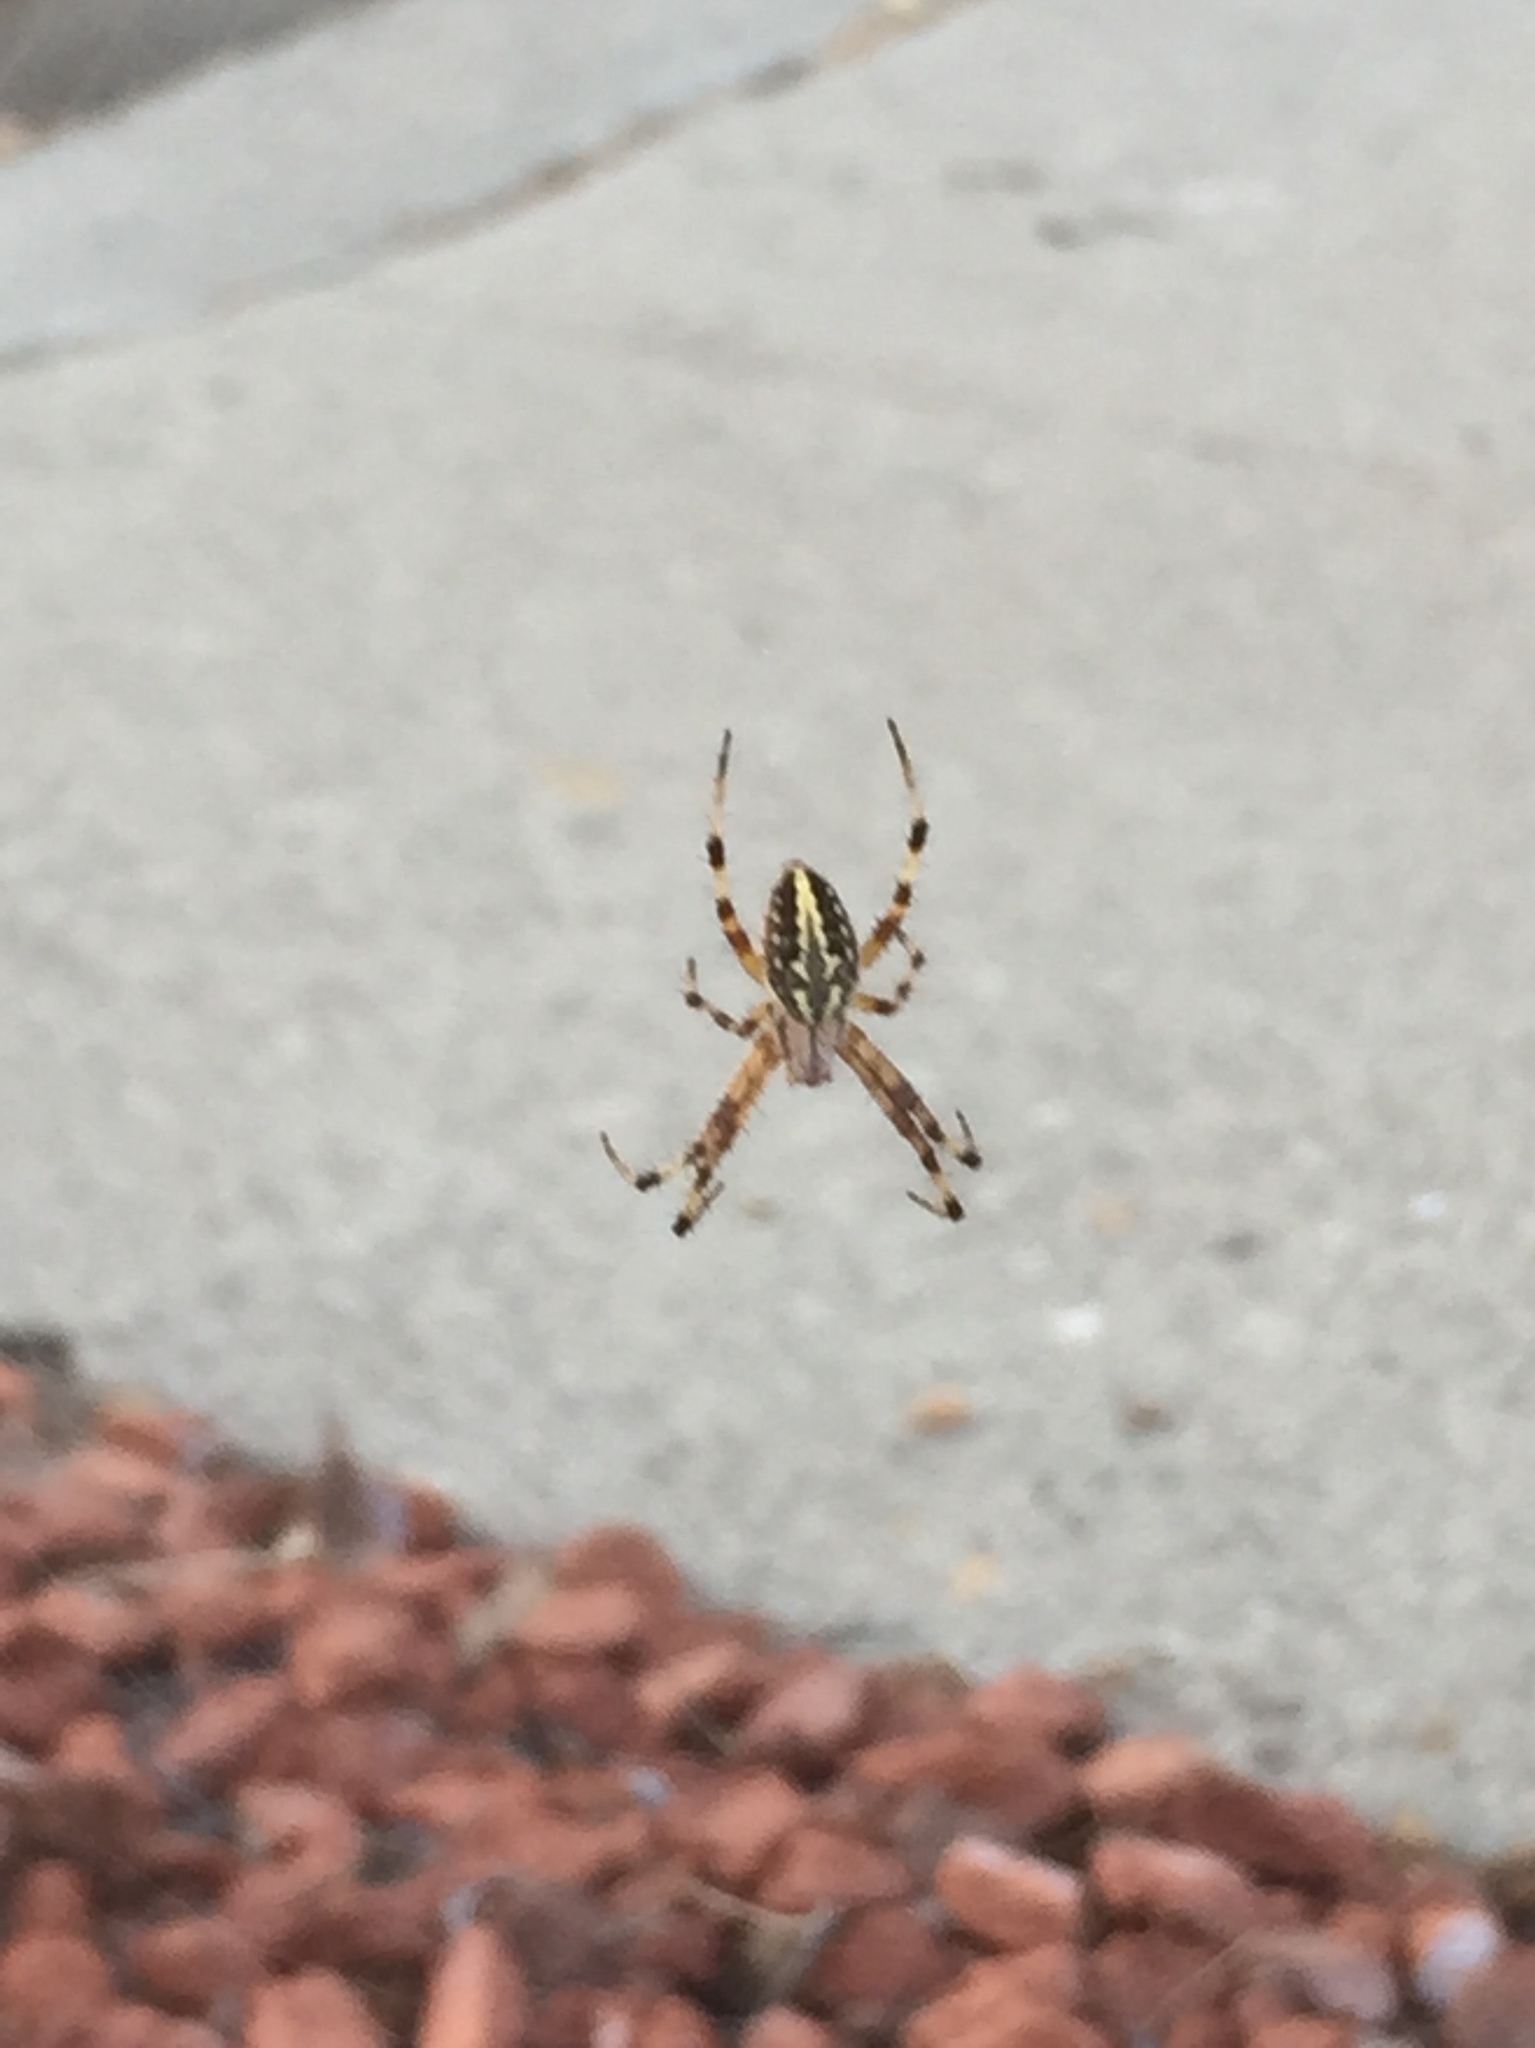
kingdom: Animalia
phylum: Arthropoda
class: Arachnida
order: Araneae
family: Araneidae
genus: Neoscona
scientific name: Neoscona oaxacensis
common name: Orb weavers
